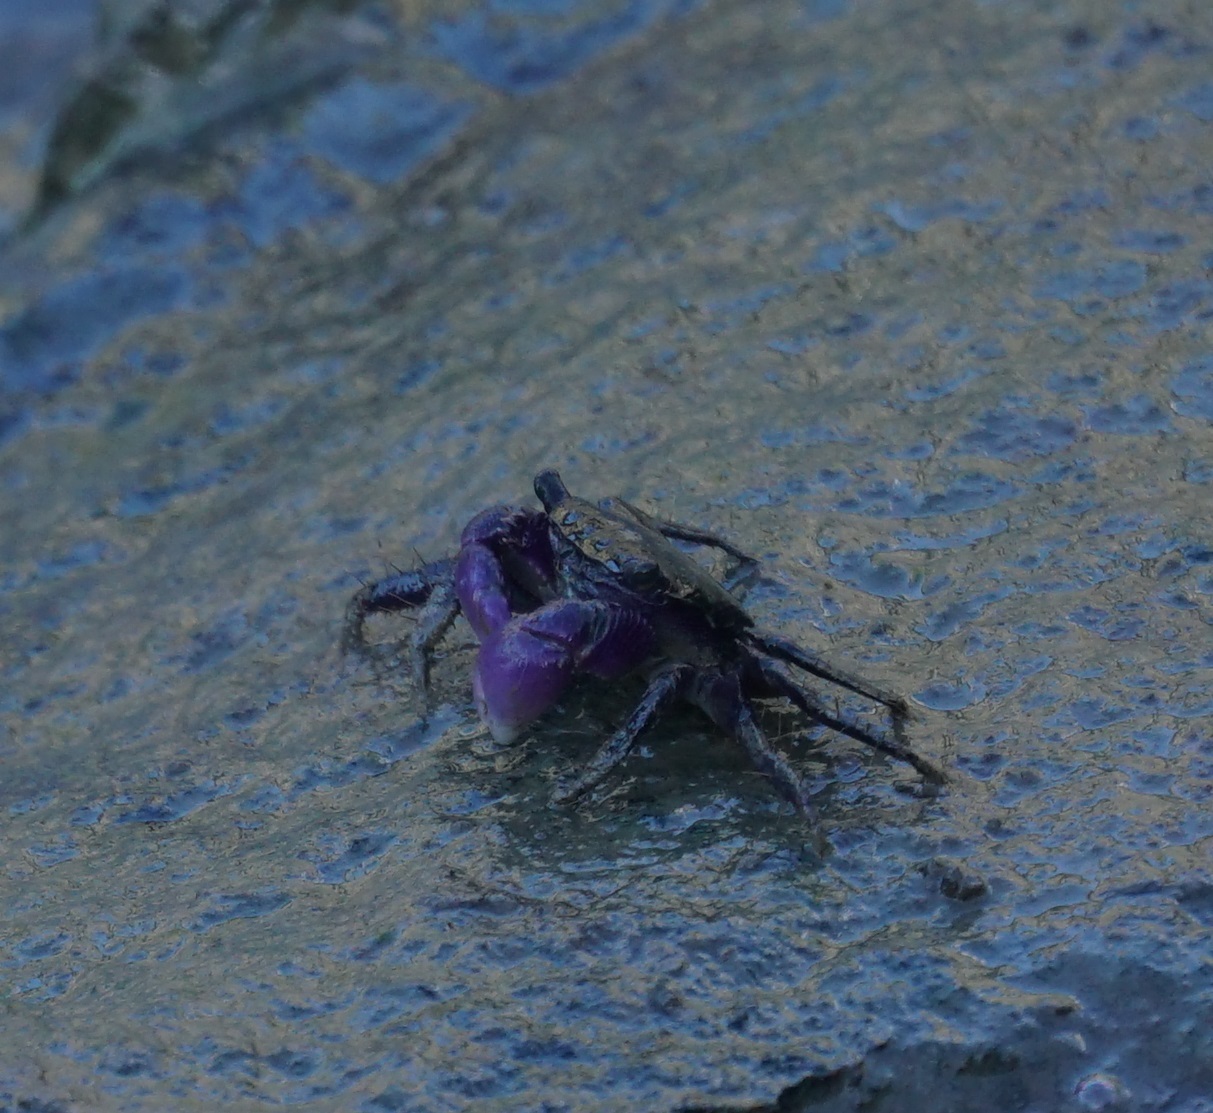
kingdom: Animalia
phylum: Arthropoda
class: Malacostraca
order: Decapoda
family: Grapsidae
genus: Metopograpsus
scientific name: Metopograpsus frontalis
